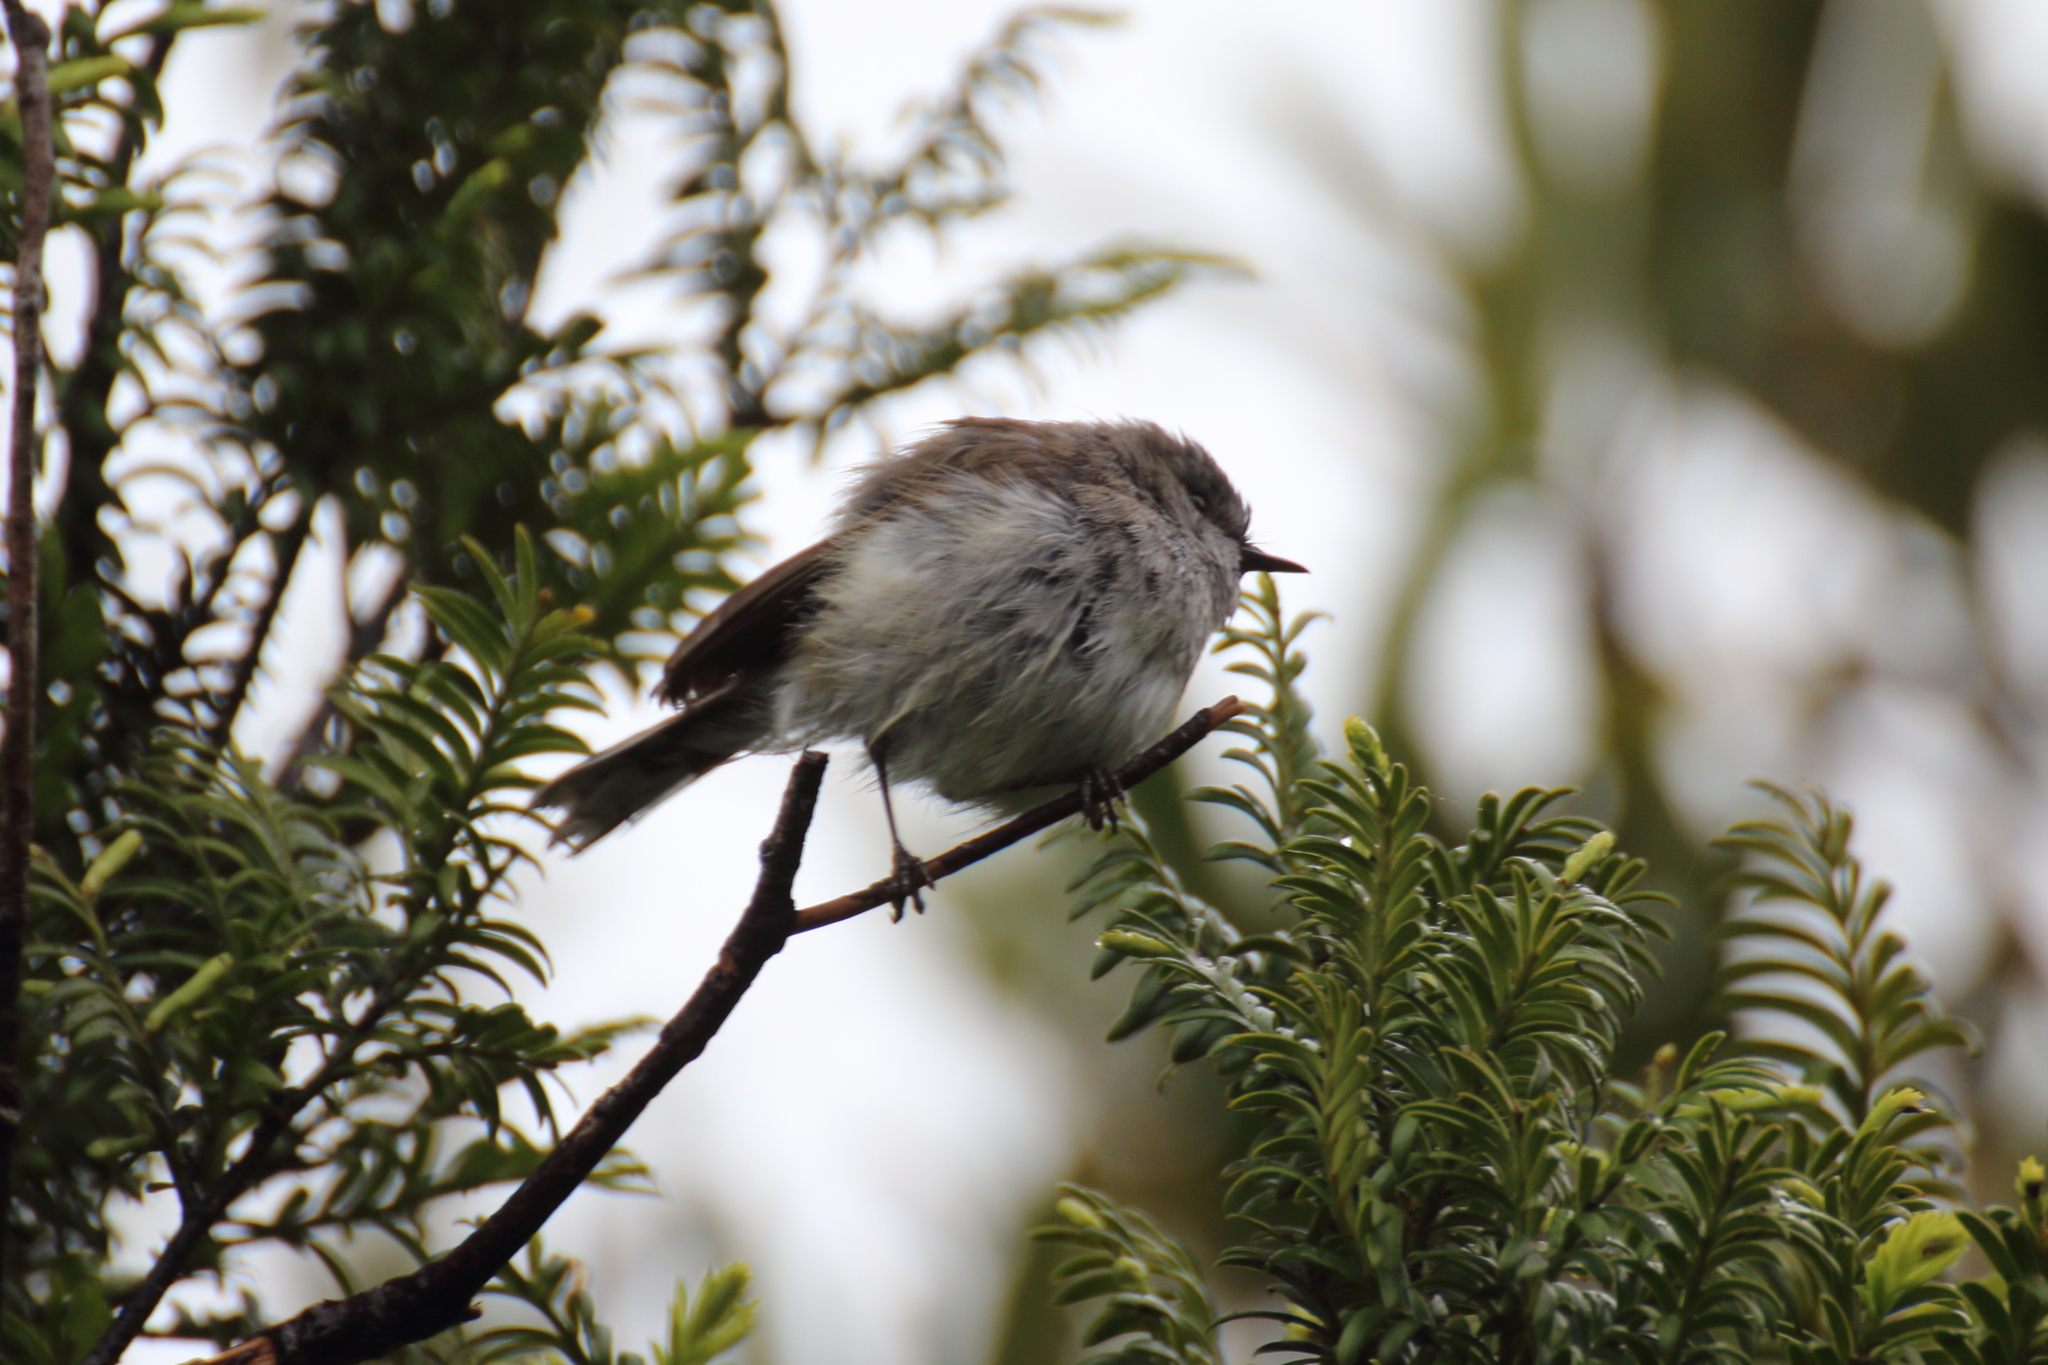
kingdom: Animalia
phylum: Chordata
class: Aves
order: Passeriformes
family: Acanthizidae
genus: Gerygone
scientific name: Gerygone igata
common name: Grey gerygone
